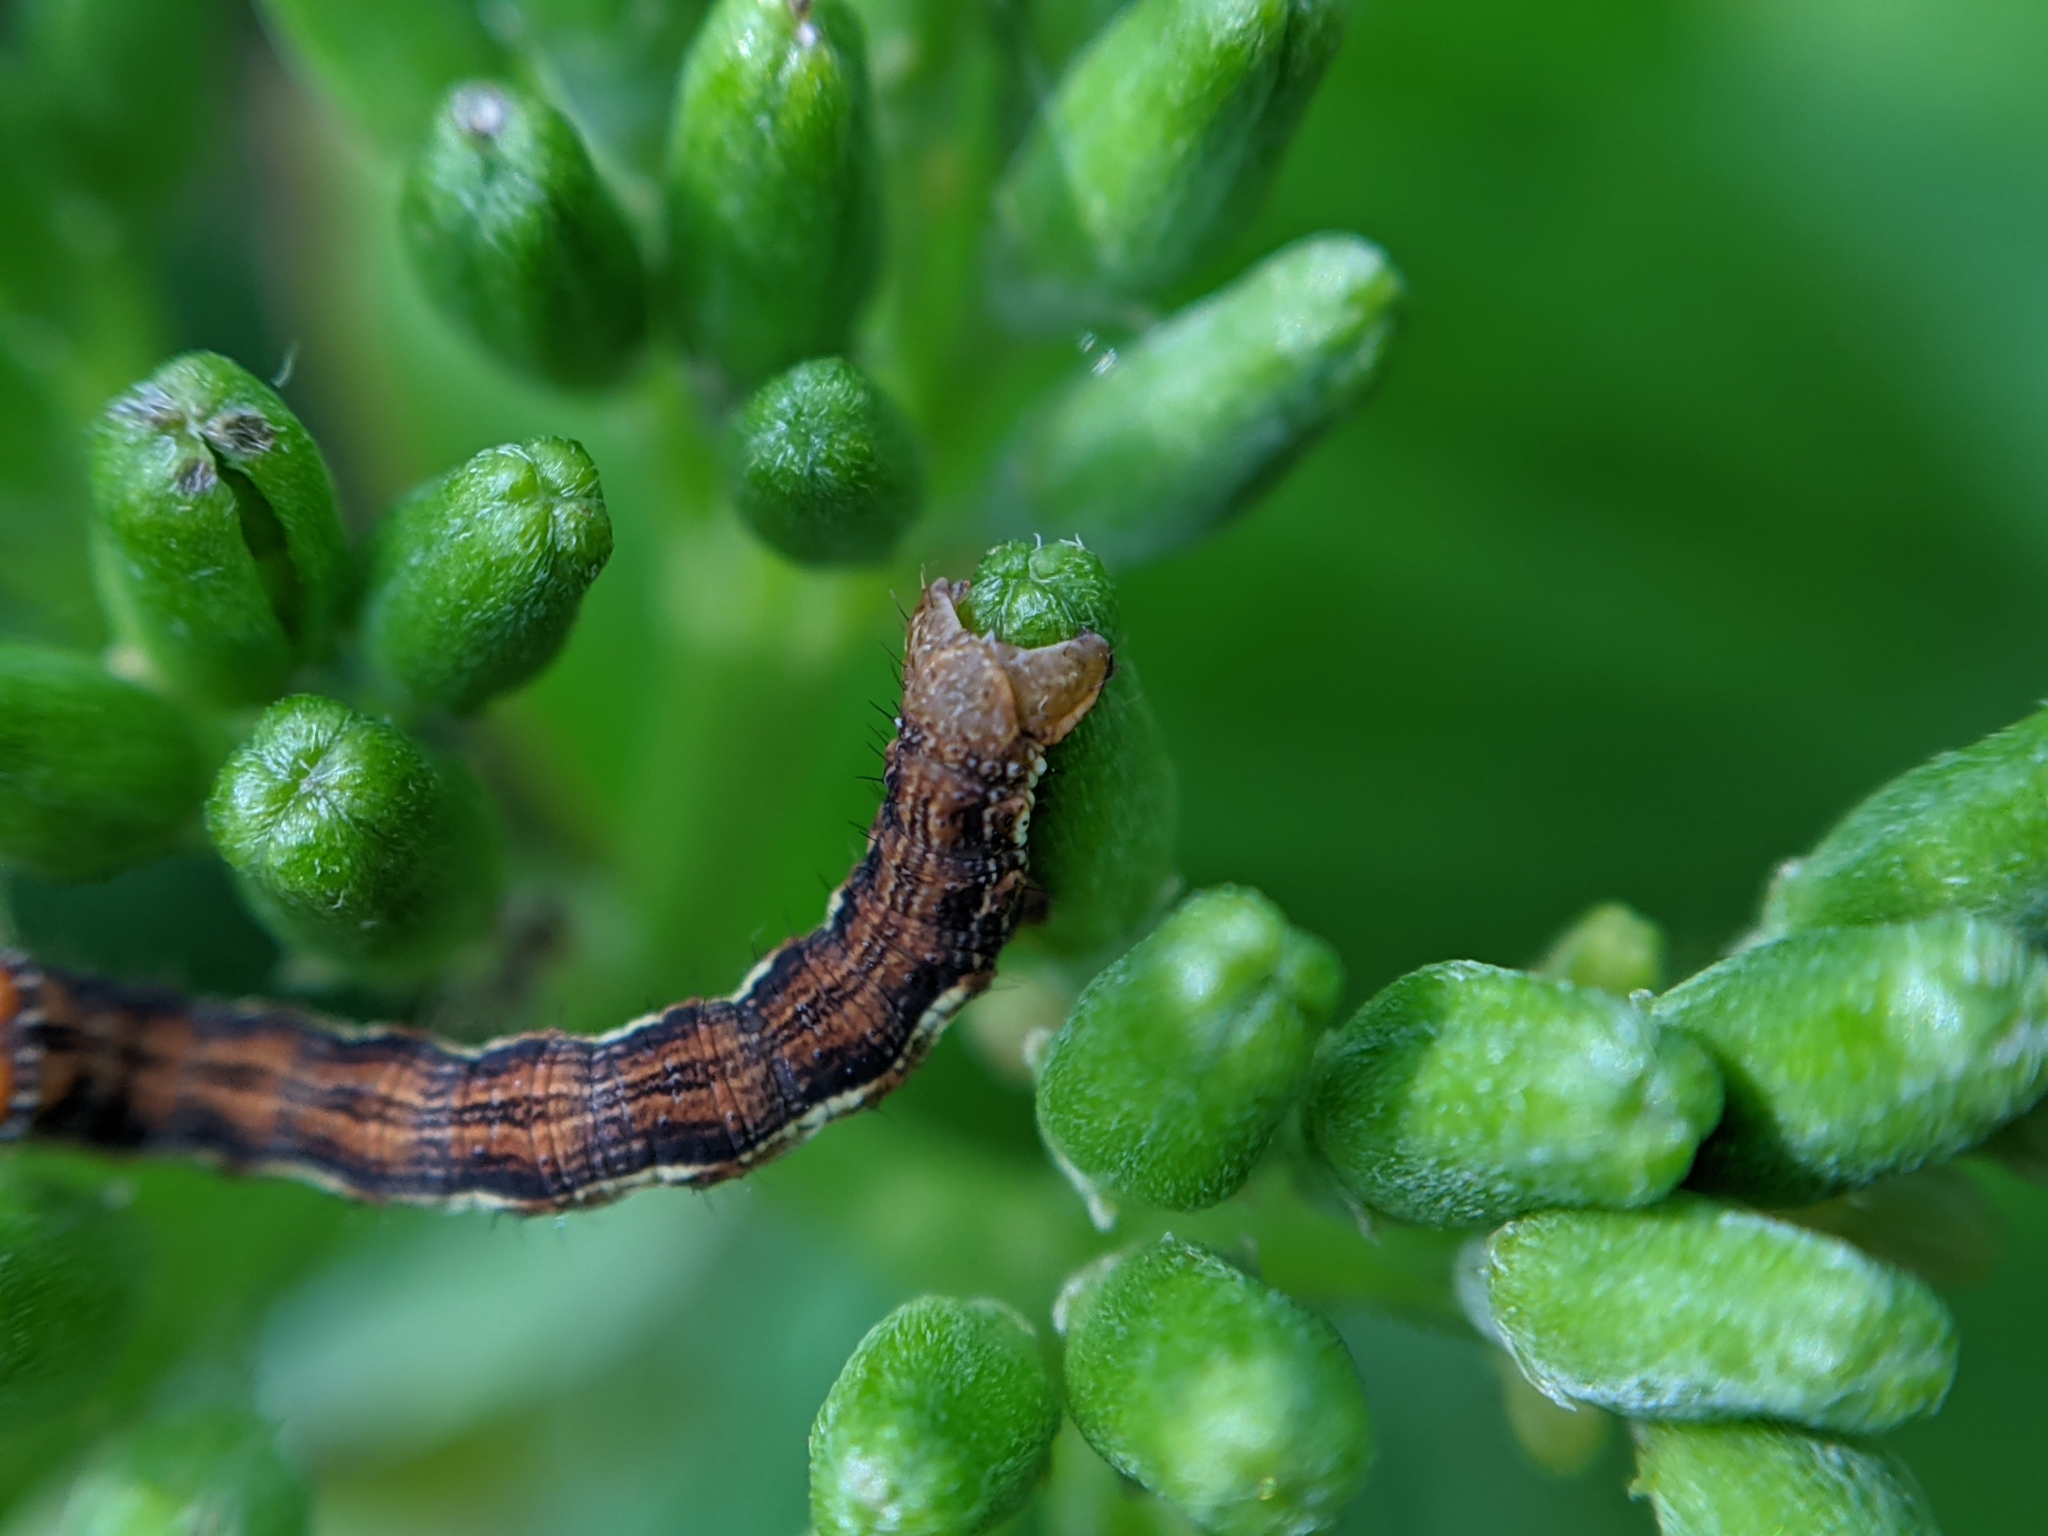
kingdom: Animalia
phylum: Arthropoda
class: Insecta
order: Lepidoptera
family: Geometridae
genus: Erannis
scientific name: Erannis defoliaria
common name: Mottled umber
